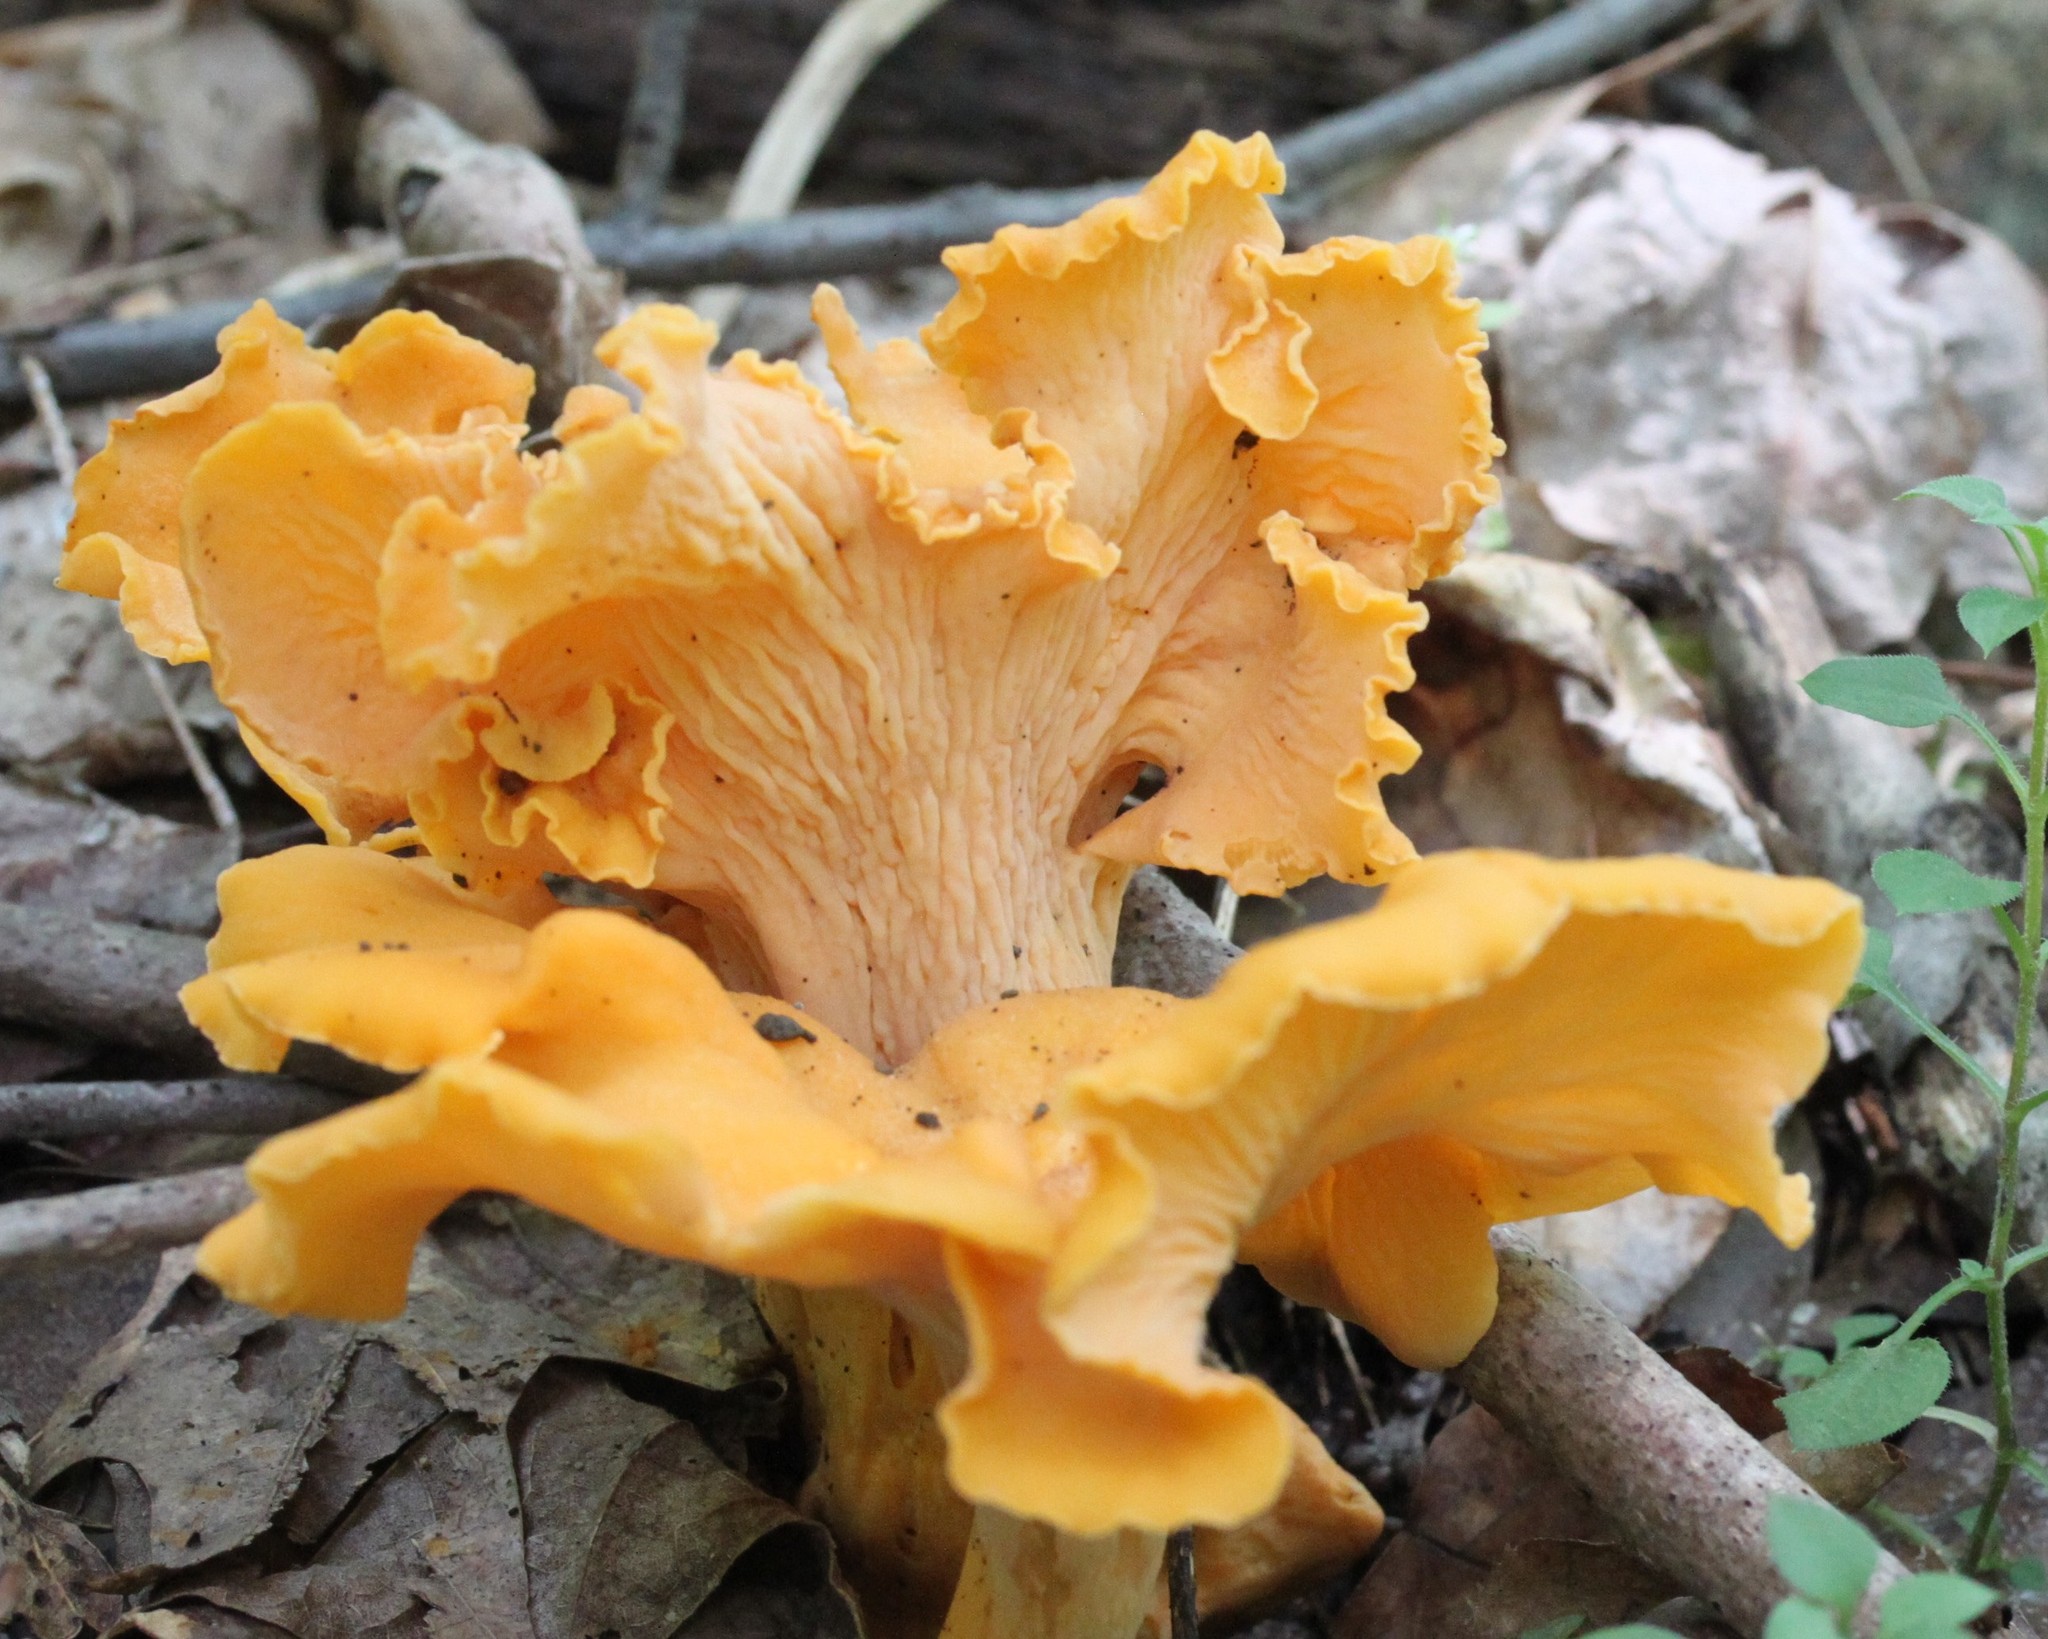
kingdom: Fungi
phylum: Basidiomycota
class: Agaricomycetes
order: Cantharellales
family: Hydnaceae
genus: Cantharellus
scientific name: Cantharellus lateritius
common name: Smooth chanterelle
